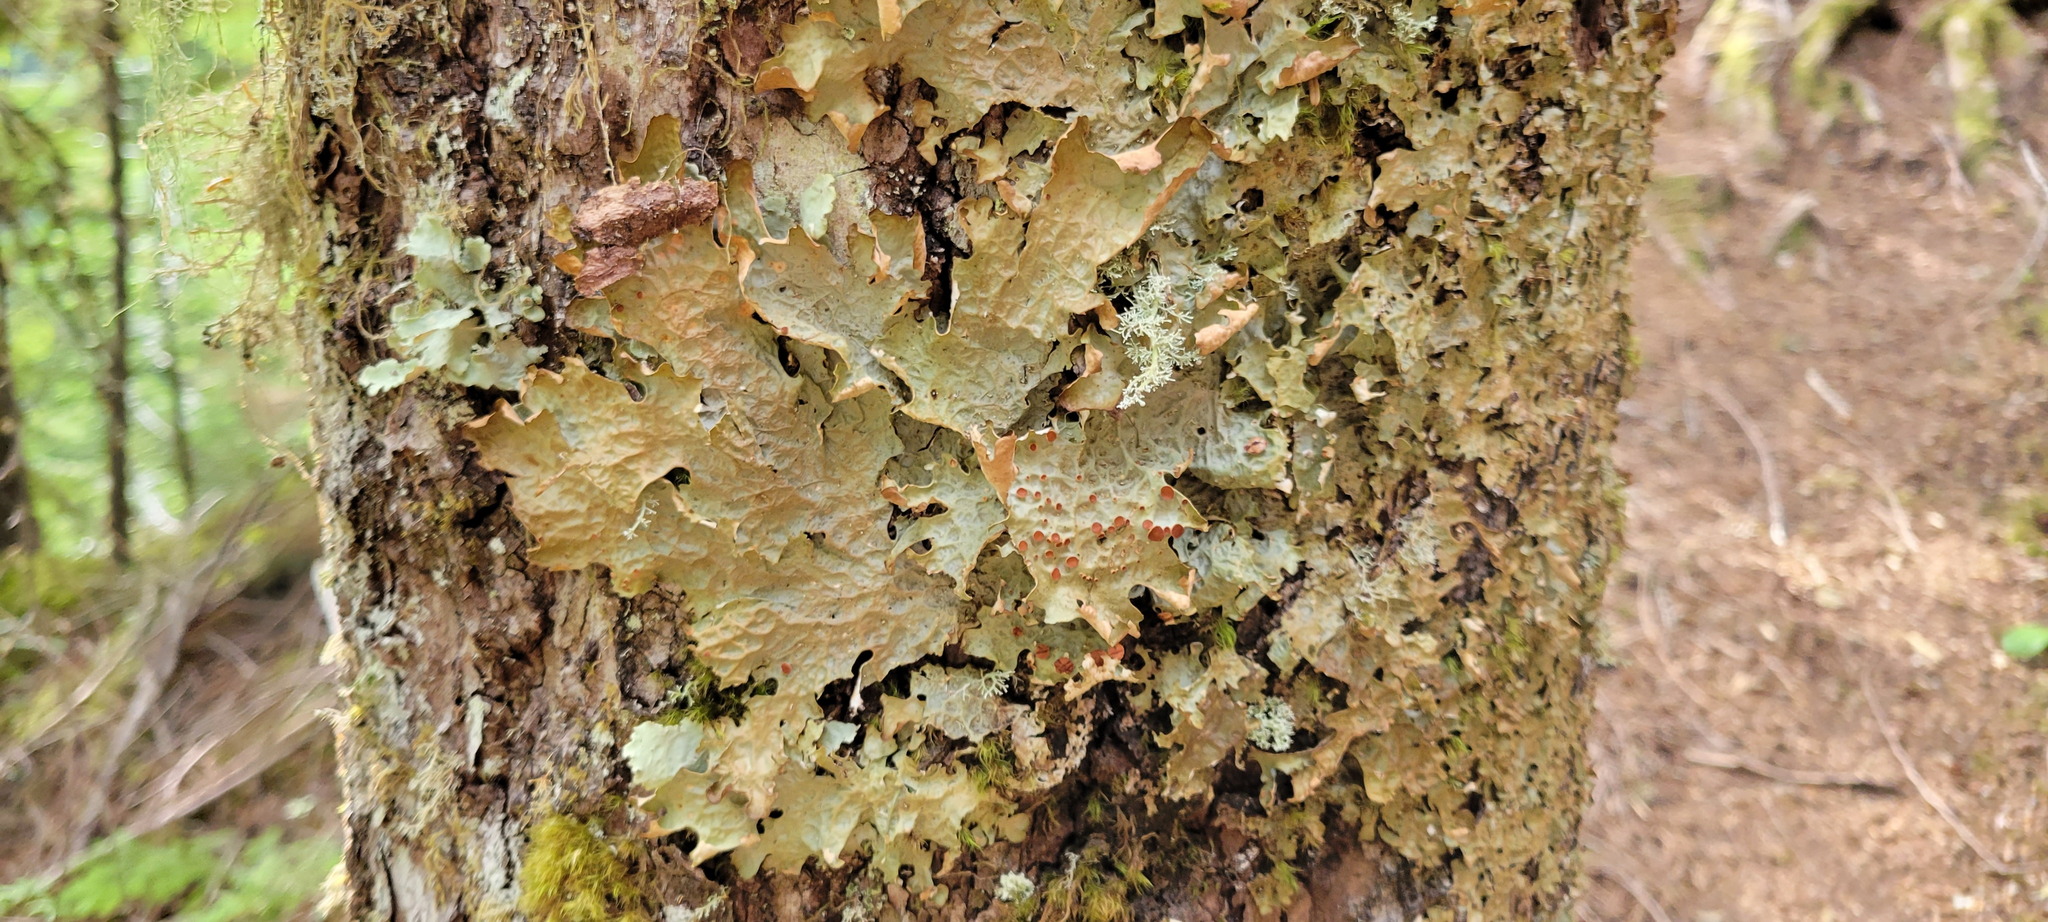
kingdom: Fungi
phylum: Ascomycota
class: Lecanoromycetes
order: Peltigerales
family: Lobariaceae
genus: Lobaria
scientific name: Lobaria linita
